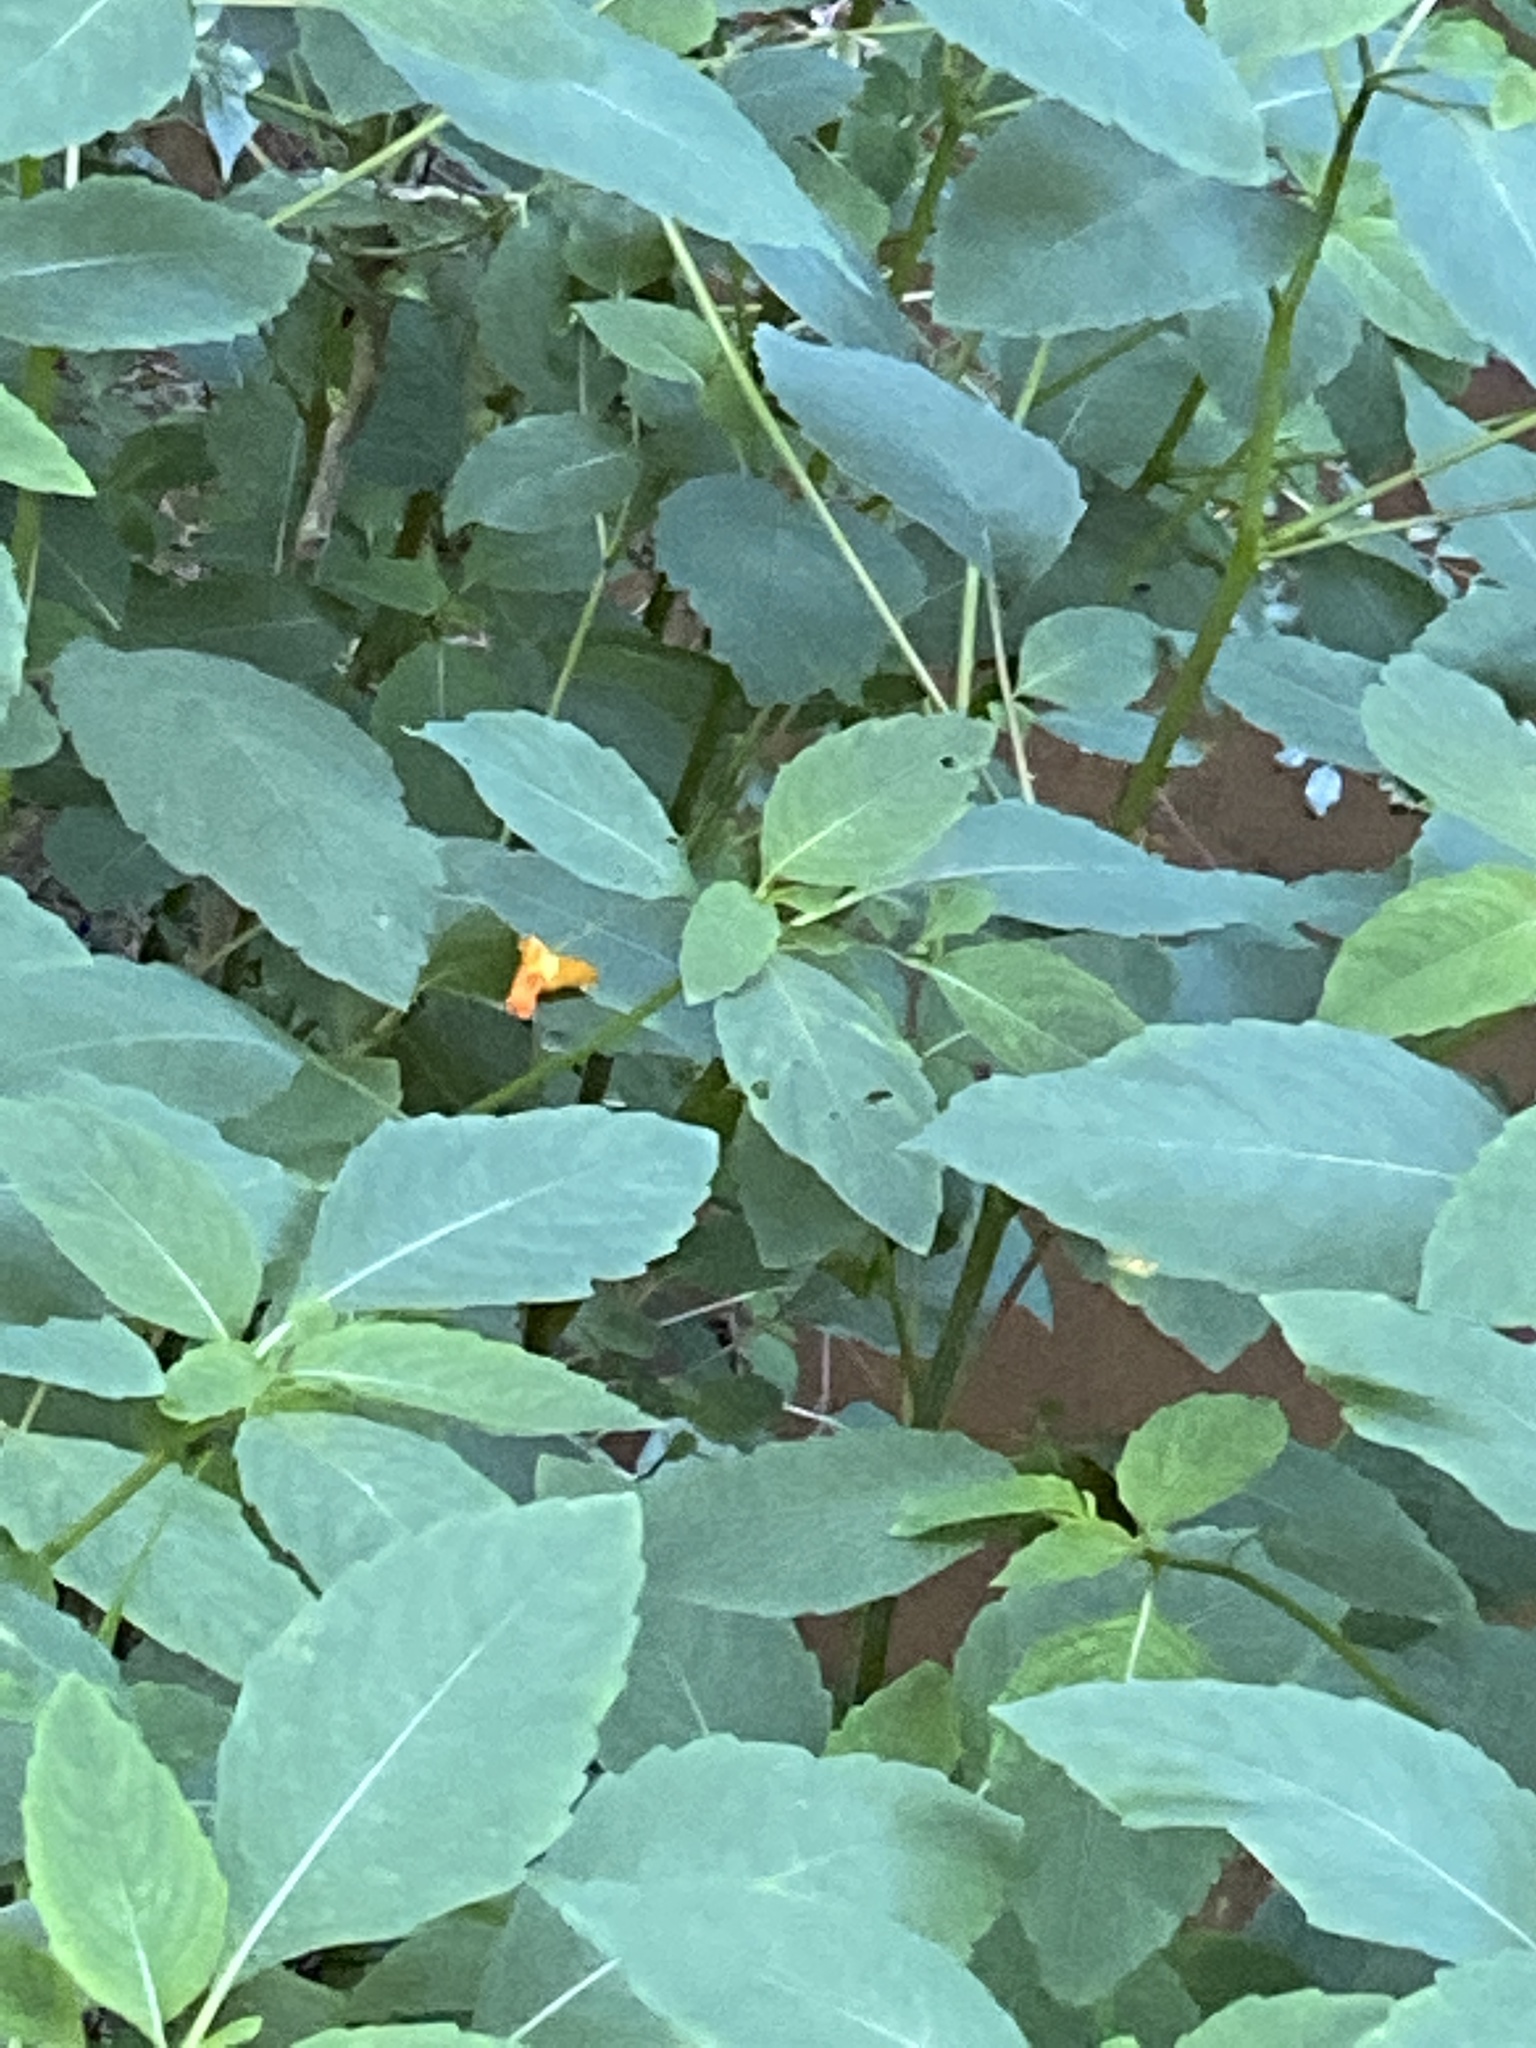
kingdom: Plantae
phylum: Tracheophyta
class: Magnoliopsida
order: Ericales
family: Balsaminaceae
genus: Impatiens
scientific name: Impatiens capensis
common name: Orange balsam
